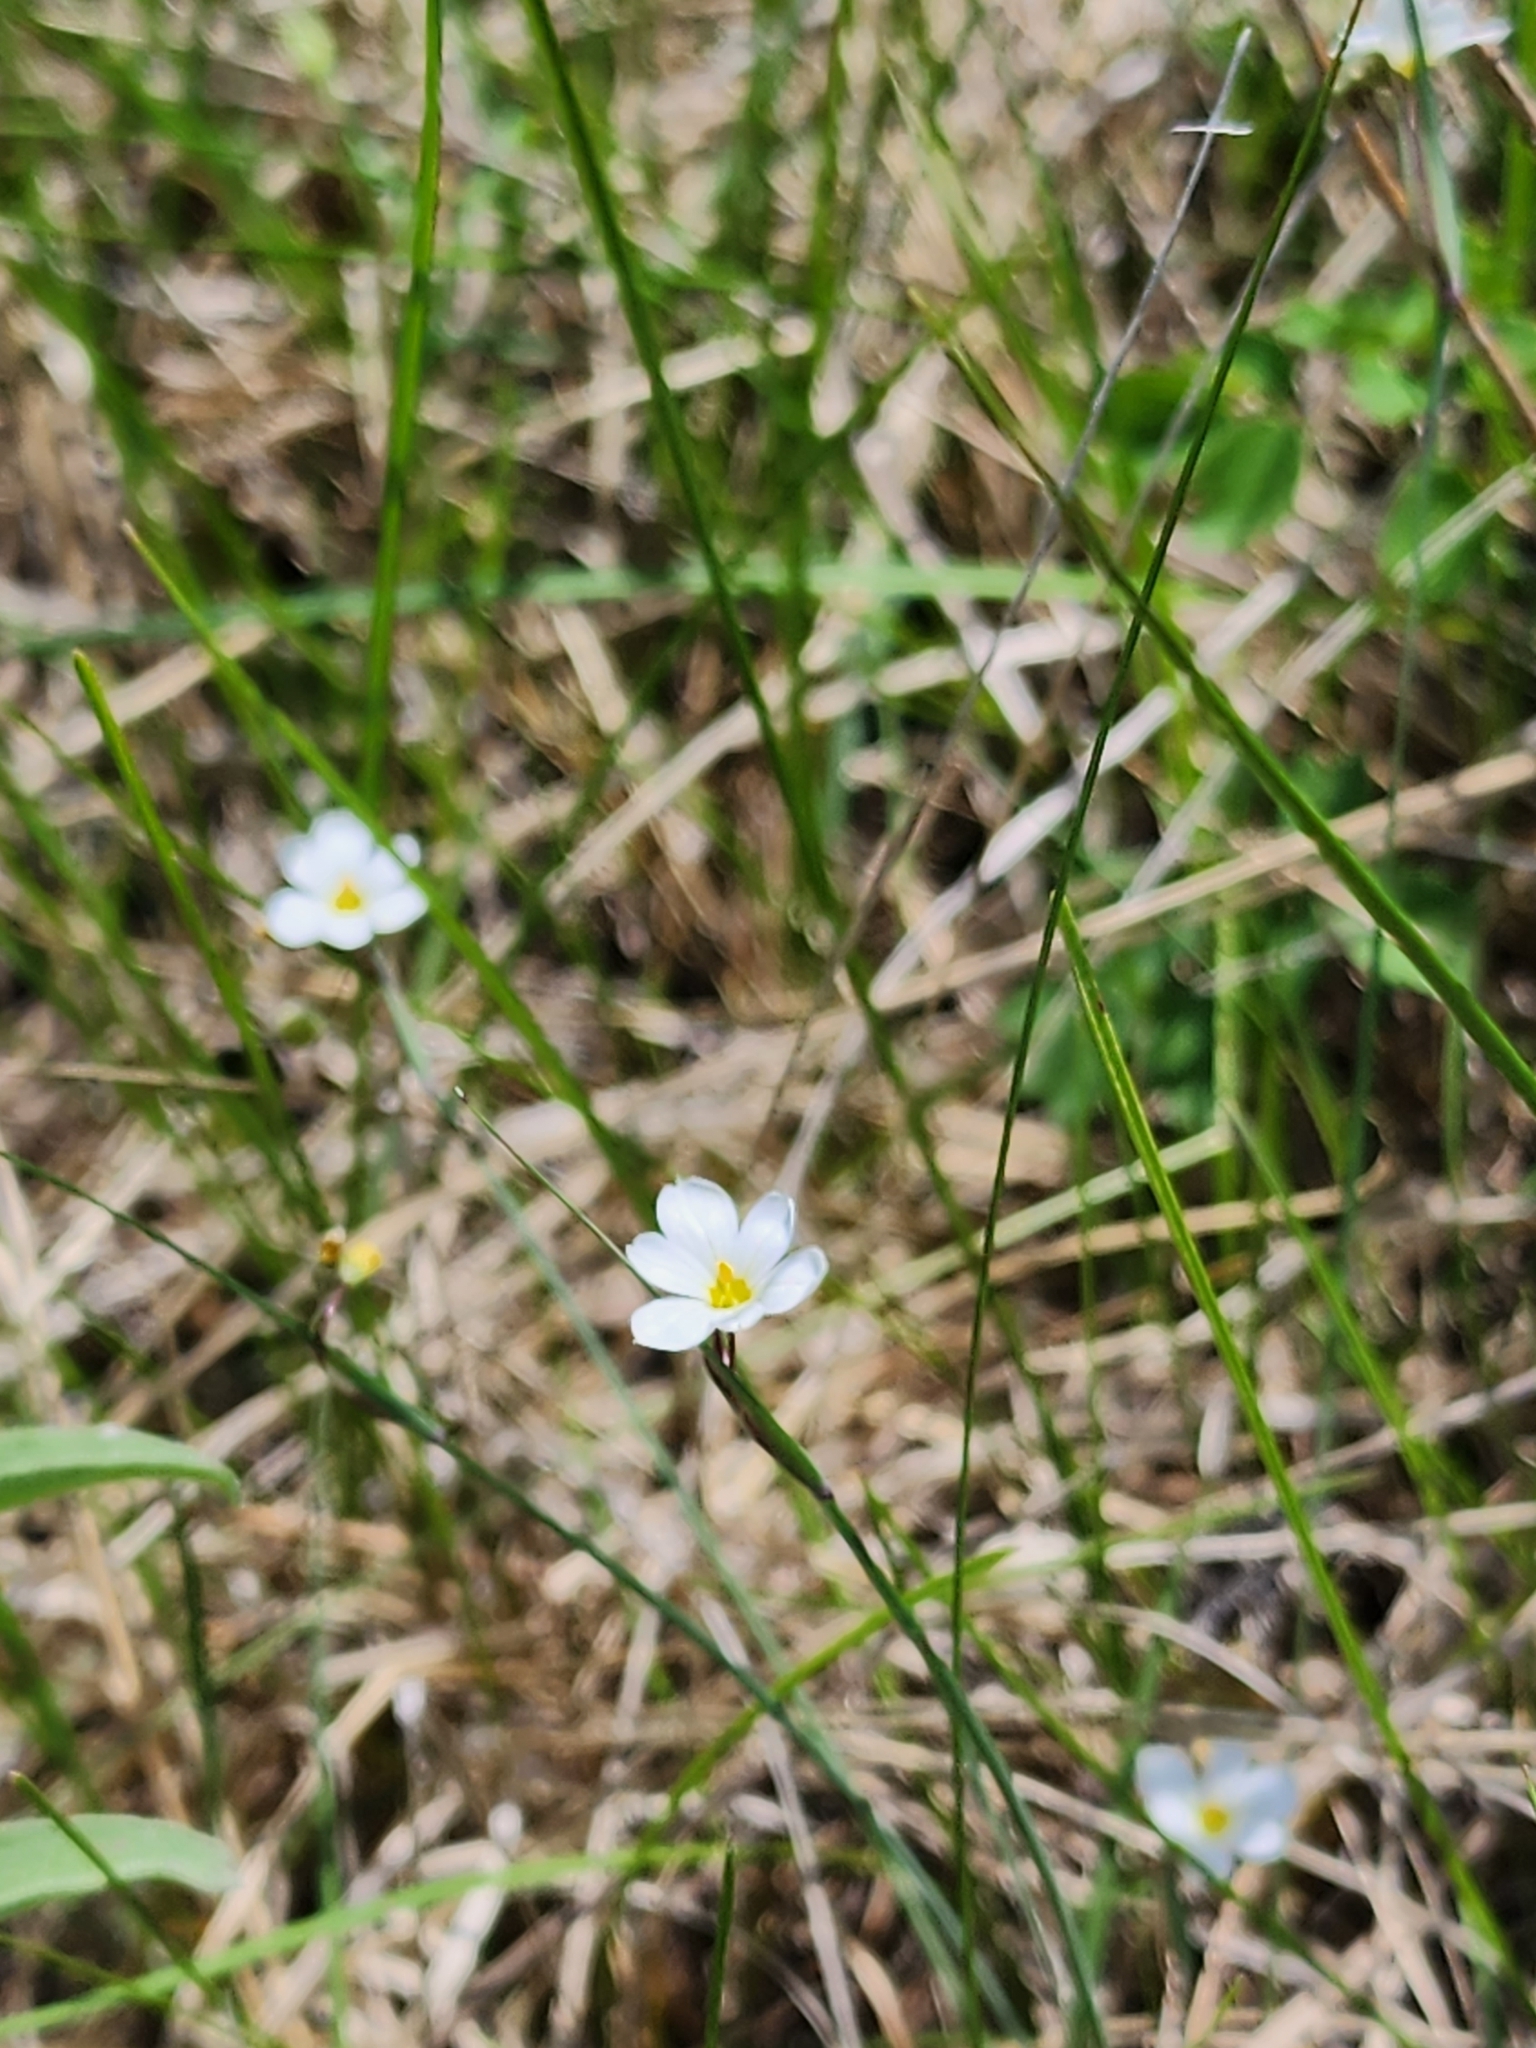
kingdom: Plantae
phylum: Tracheophyta
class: Liliopsida
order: Asparagales
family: Iridaceae
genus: Sisyrinchium
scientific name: Sisyrinchium campestre
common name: Prairie blue-eyed-grass
